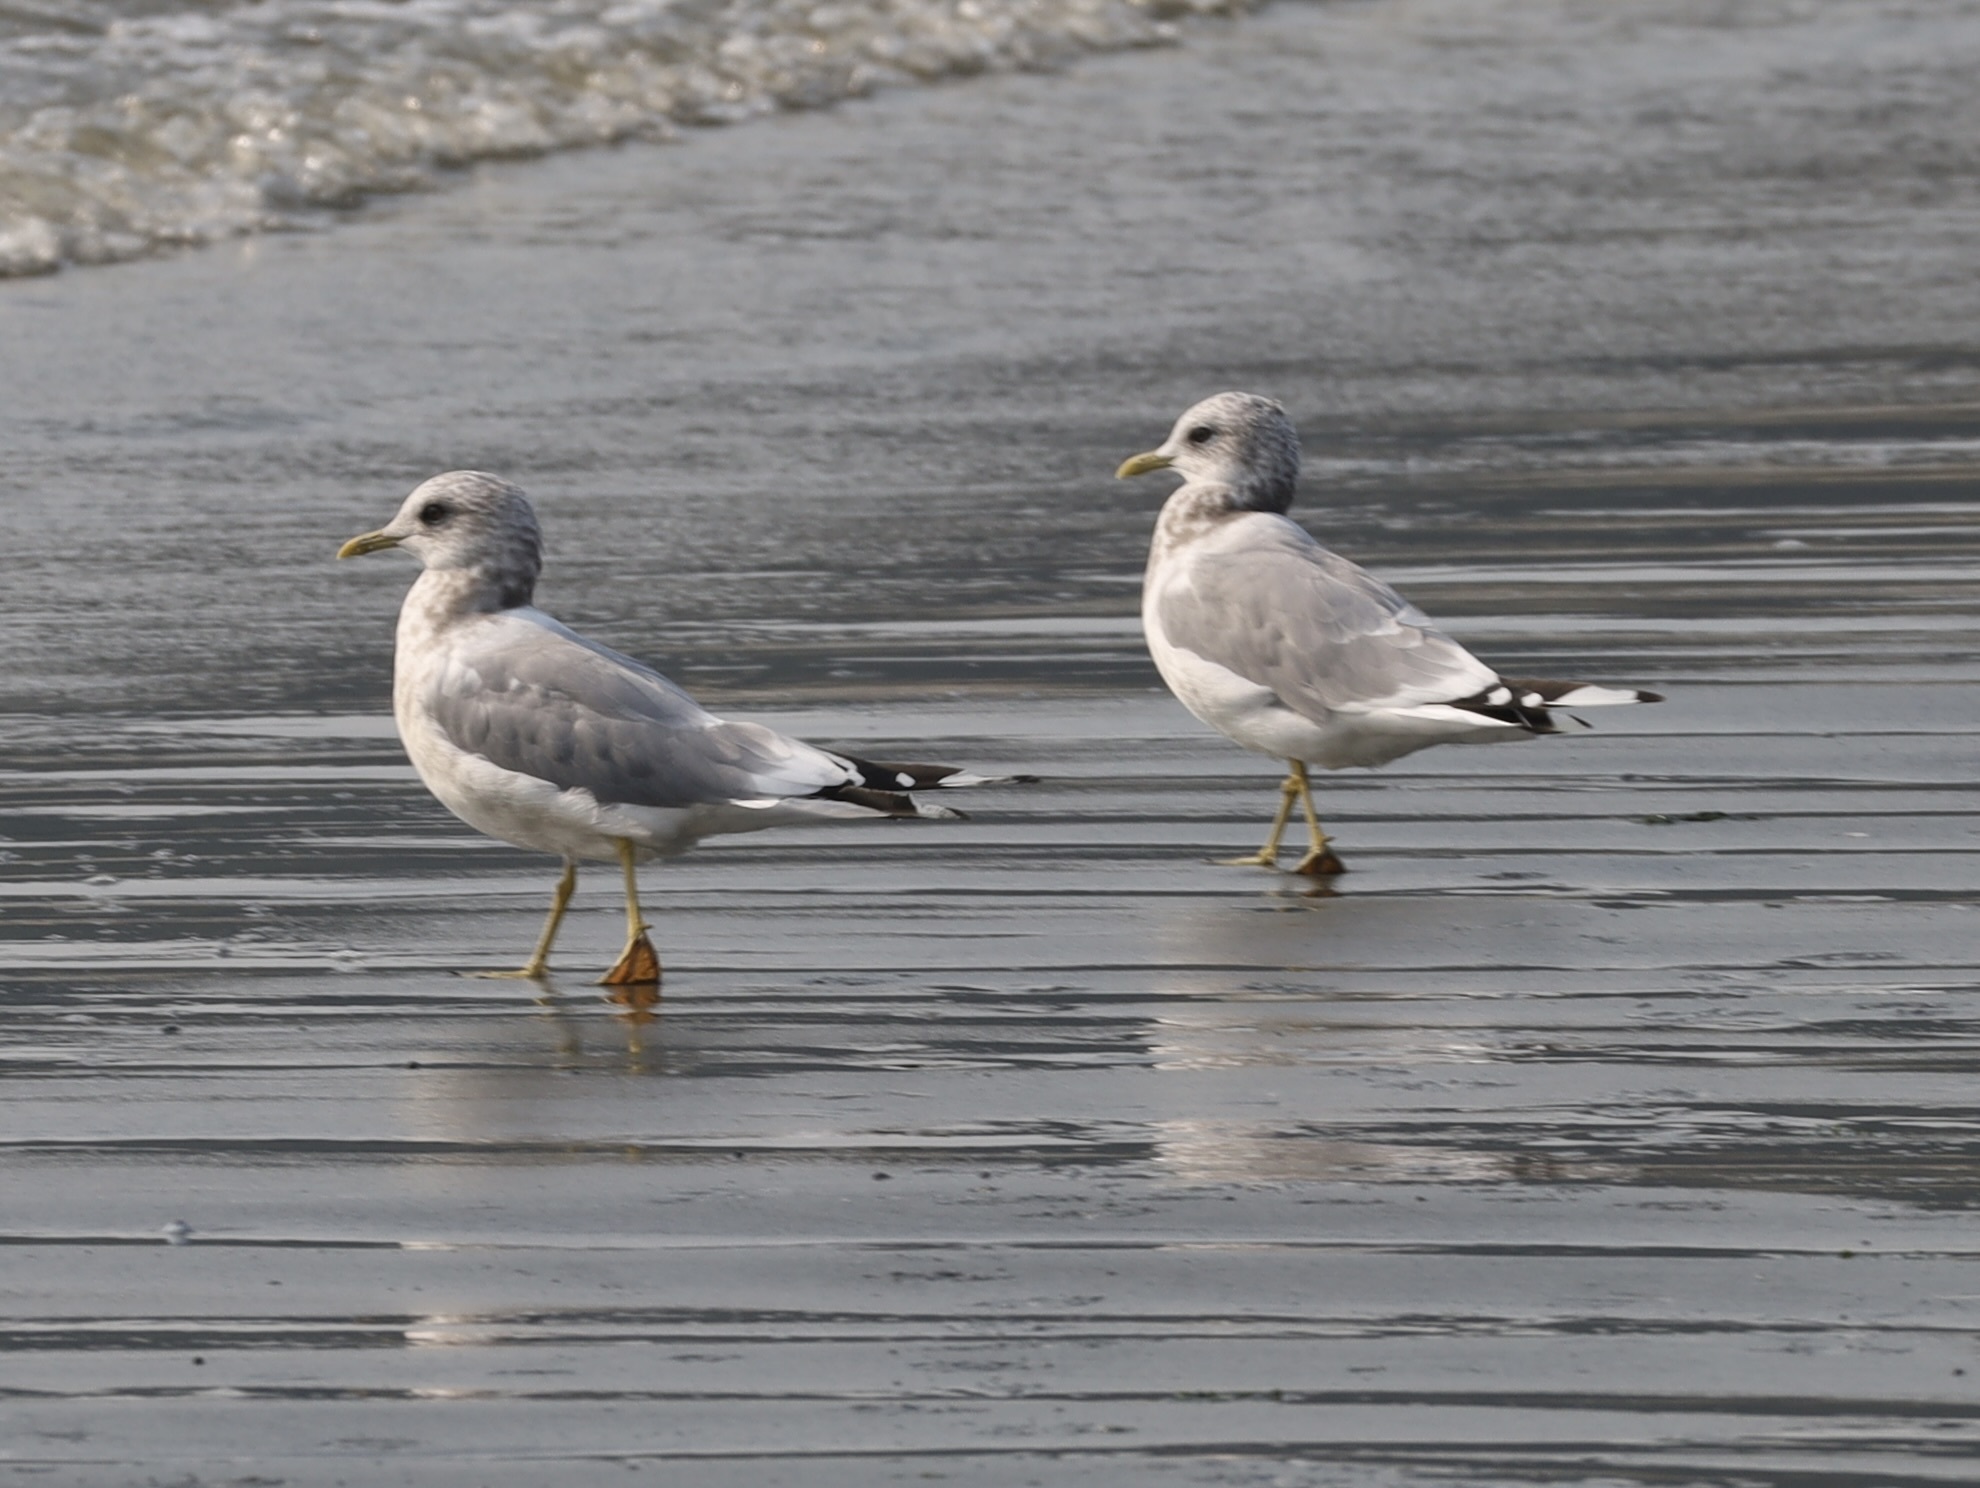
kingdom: Animalia
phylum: Chordata
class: Aves
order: Charadriiformes
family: Laridae
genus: Larus
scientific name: Larus brachyrhynchus
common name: Short-billed gull
